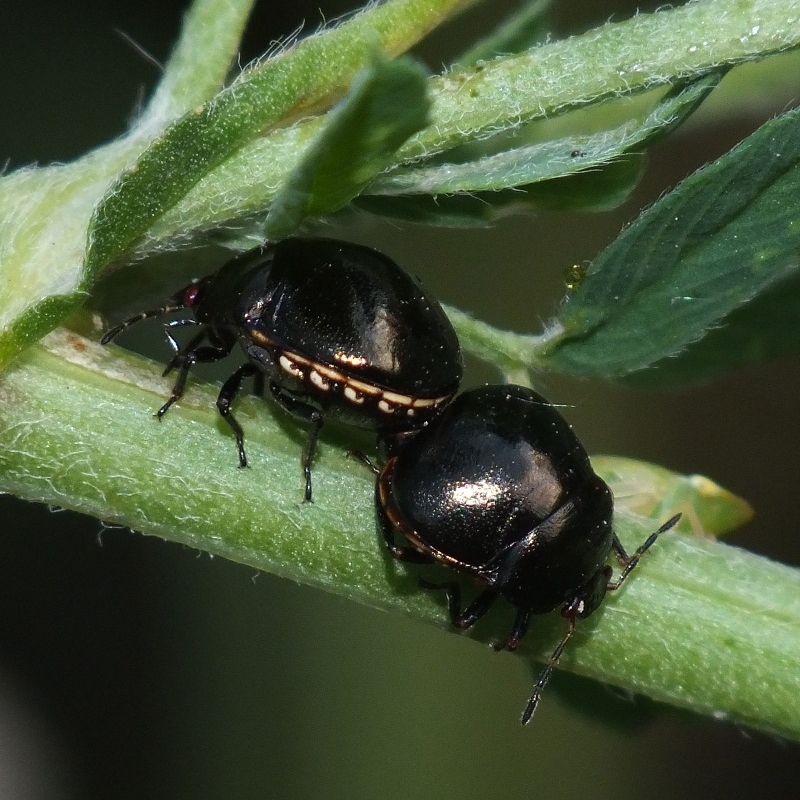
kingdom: Animalia
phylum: Arthropoda
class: Insecta
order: Hemiptera
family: Plataspidae
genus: Coptosoma
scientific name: Coptosoma scutellatum
